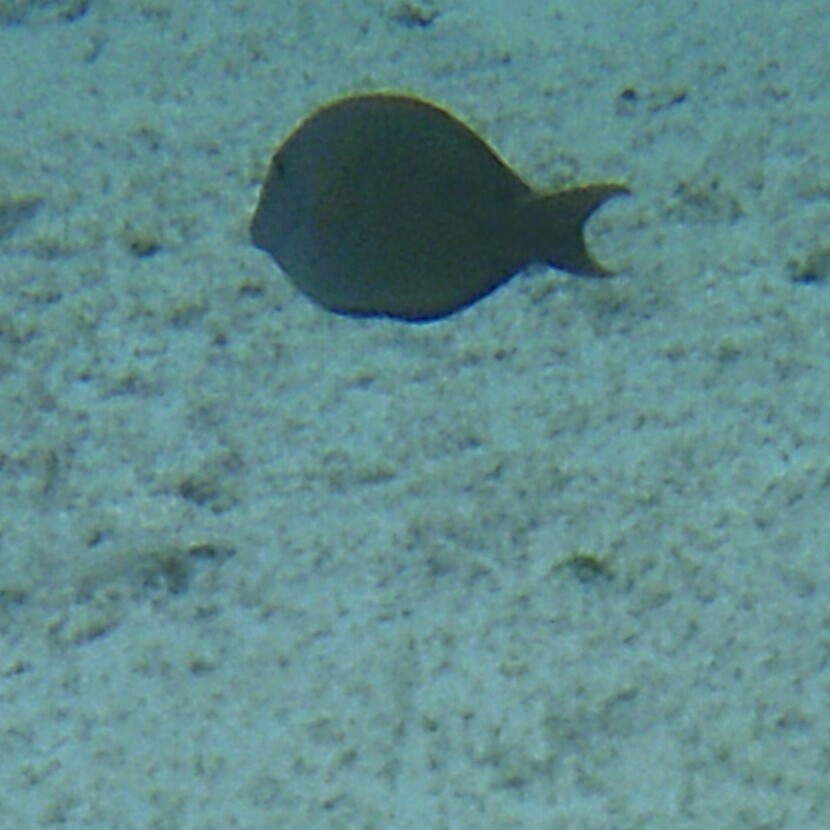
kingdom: Animalia
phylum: Chordata
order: Perciformes
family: Acanthuridae
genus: Acanthurus
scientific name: Acanthurus nigrofuscus
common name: Blackspot surgeonfish
